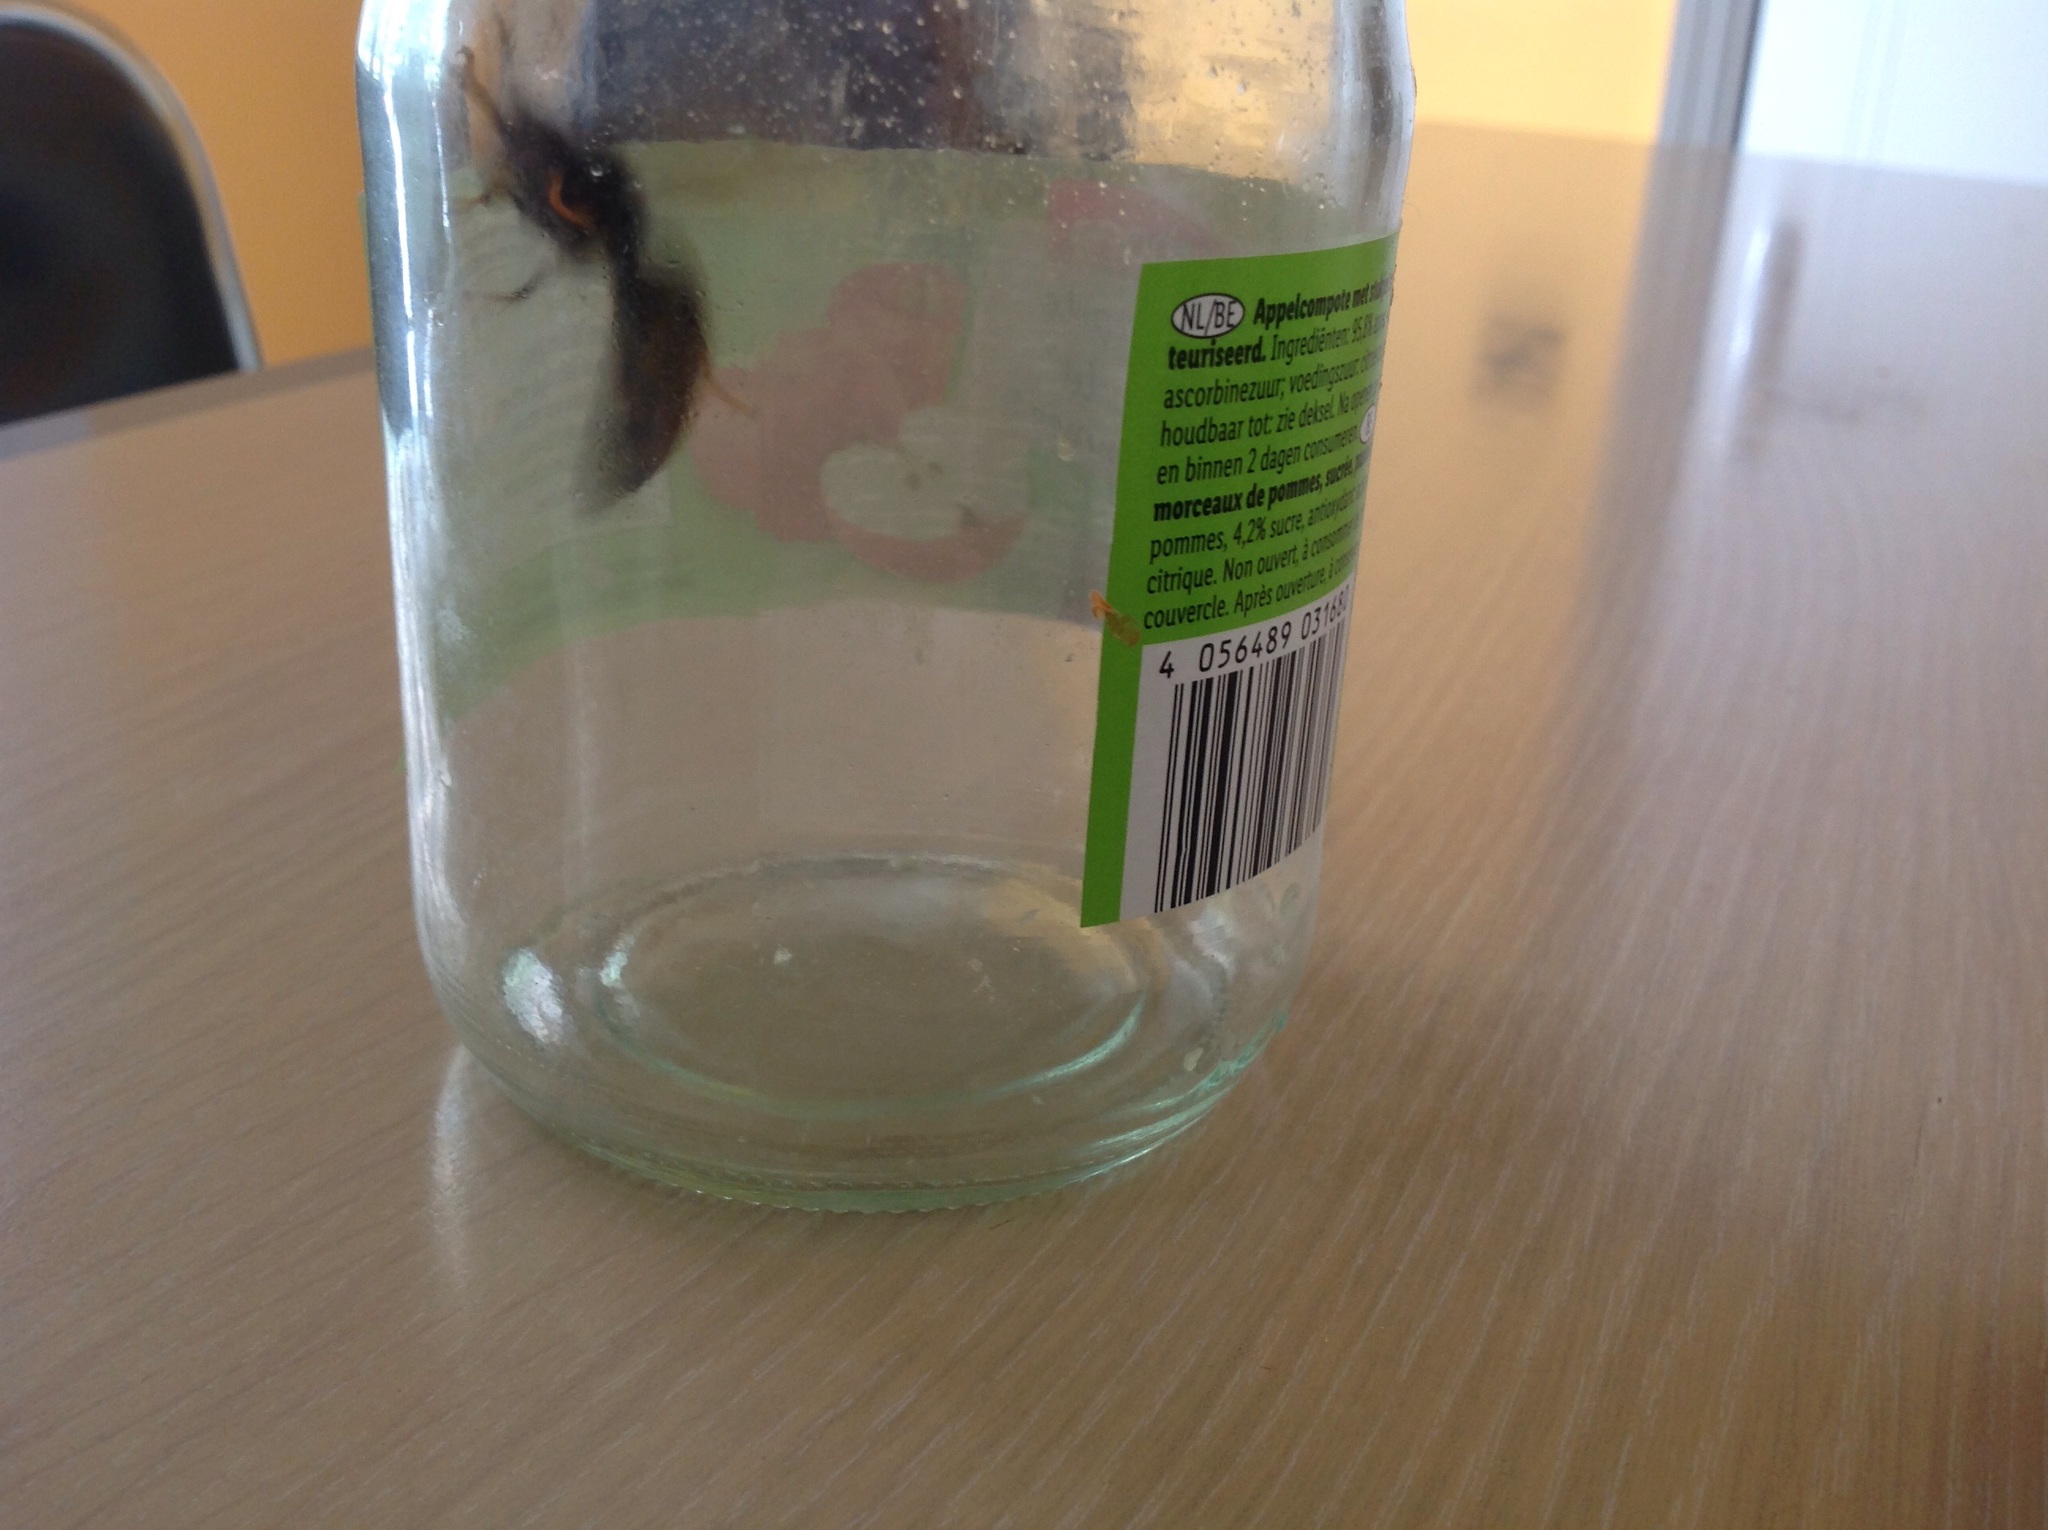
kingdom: Animalia
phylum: Arthropoda
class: Insecta
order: Hymenoptera
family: Vespidae
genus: Vespa
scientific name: Vespa velutina
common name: Asian hornet
